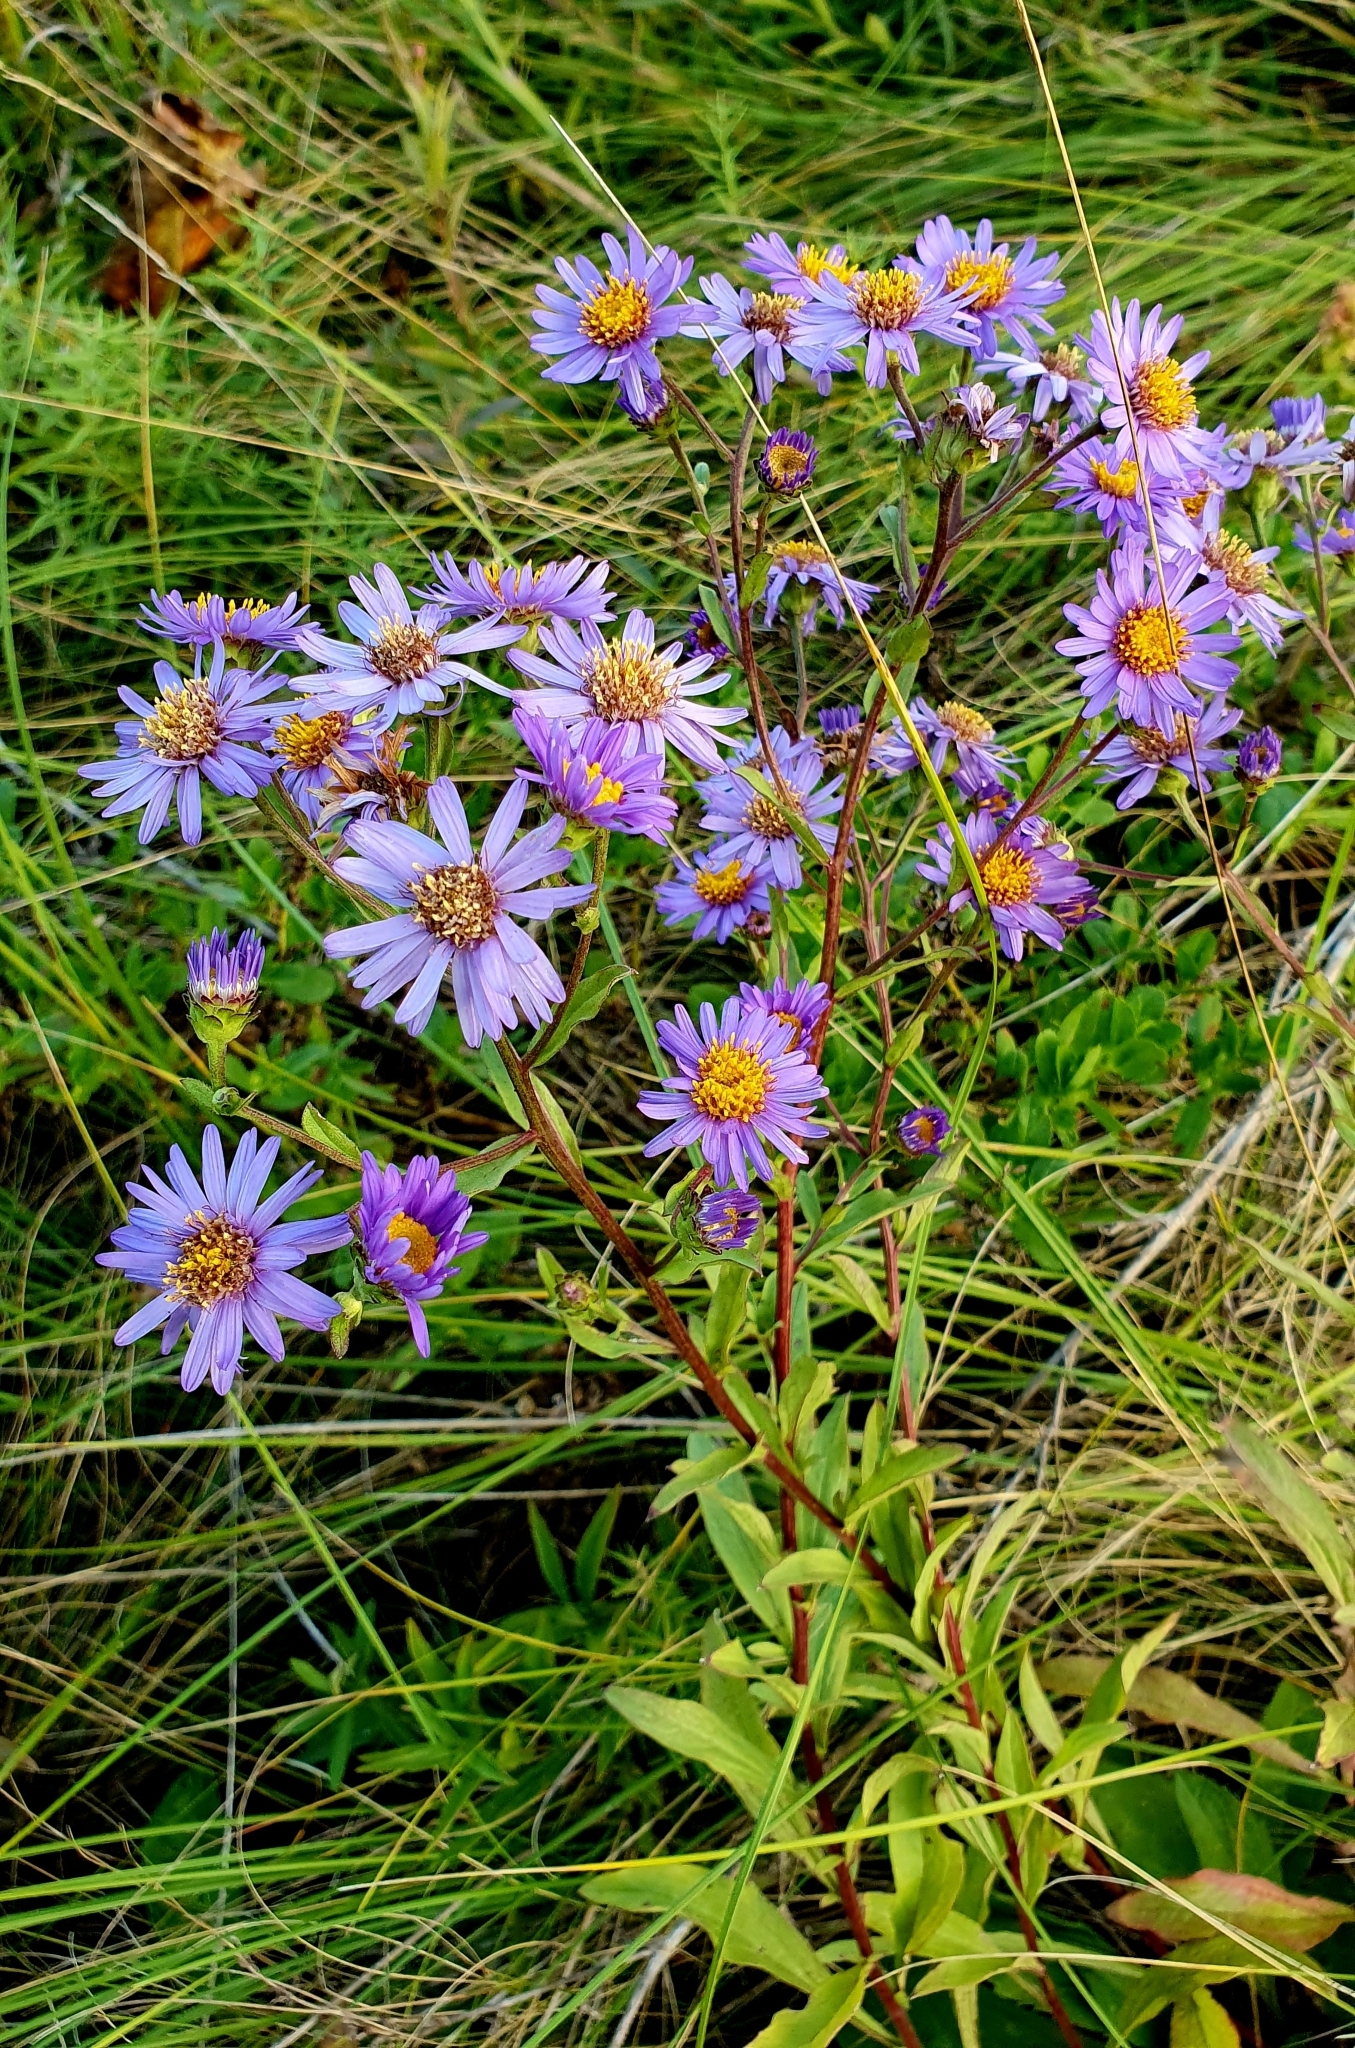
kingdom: Plantae
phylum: Tracheophyta
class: Magnoliopsida
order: Asterales
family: Asteraceae
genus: Aster
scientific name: Aster amellus
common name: European michaelmas daisy
